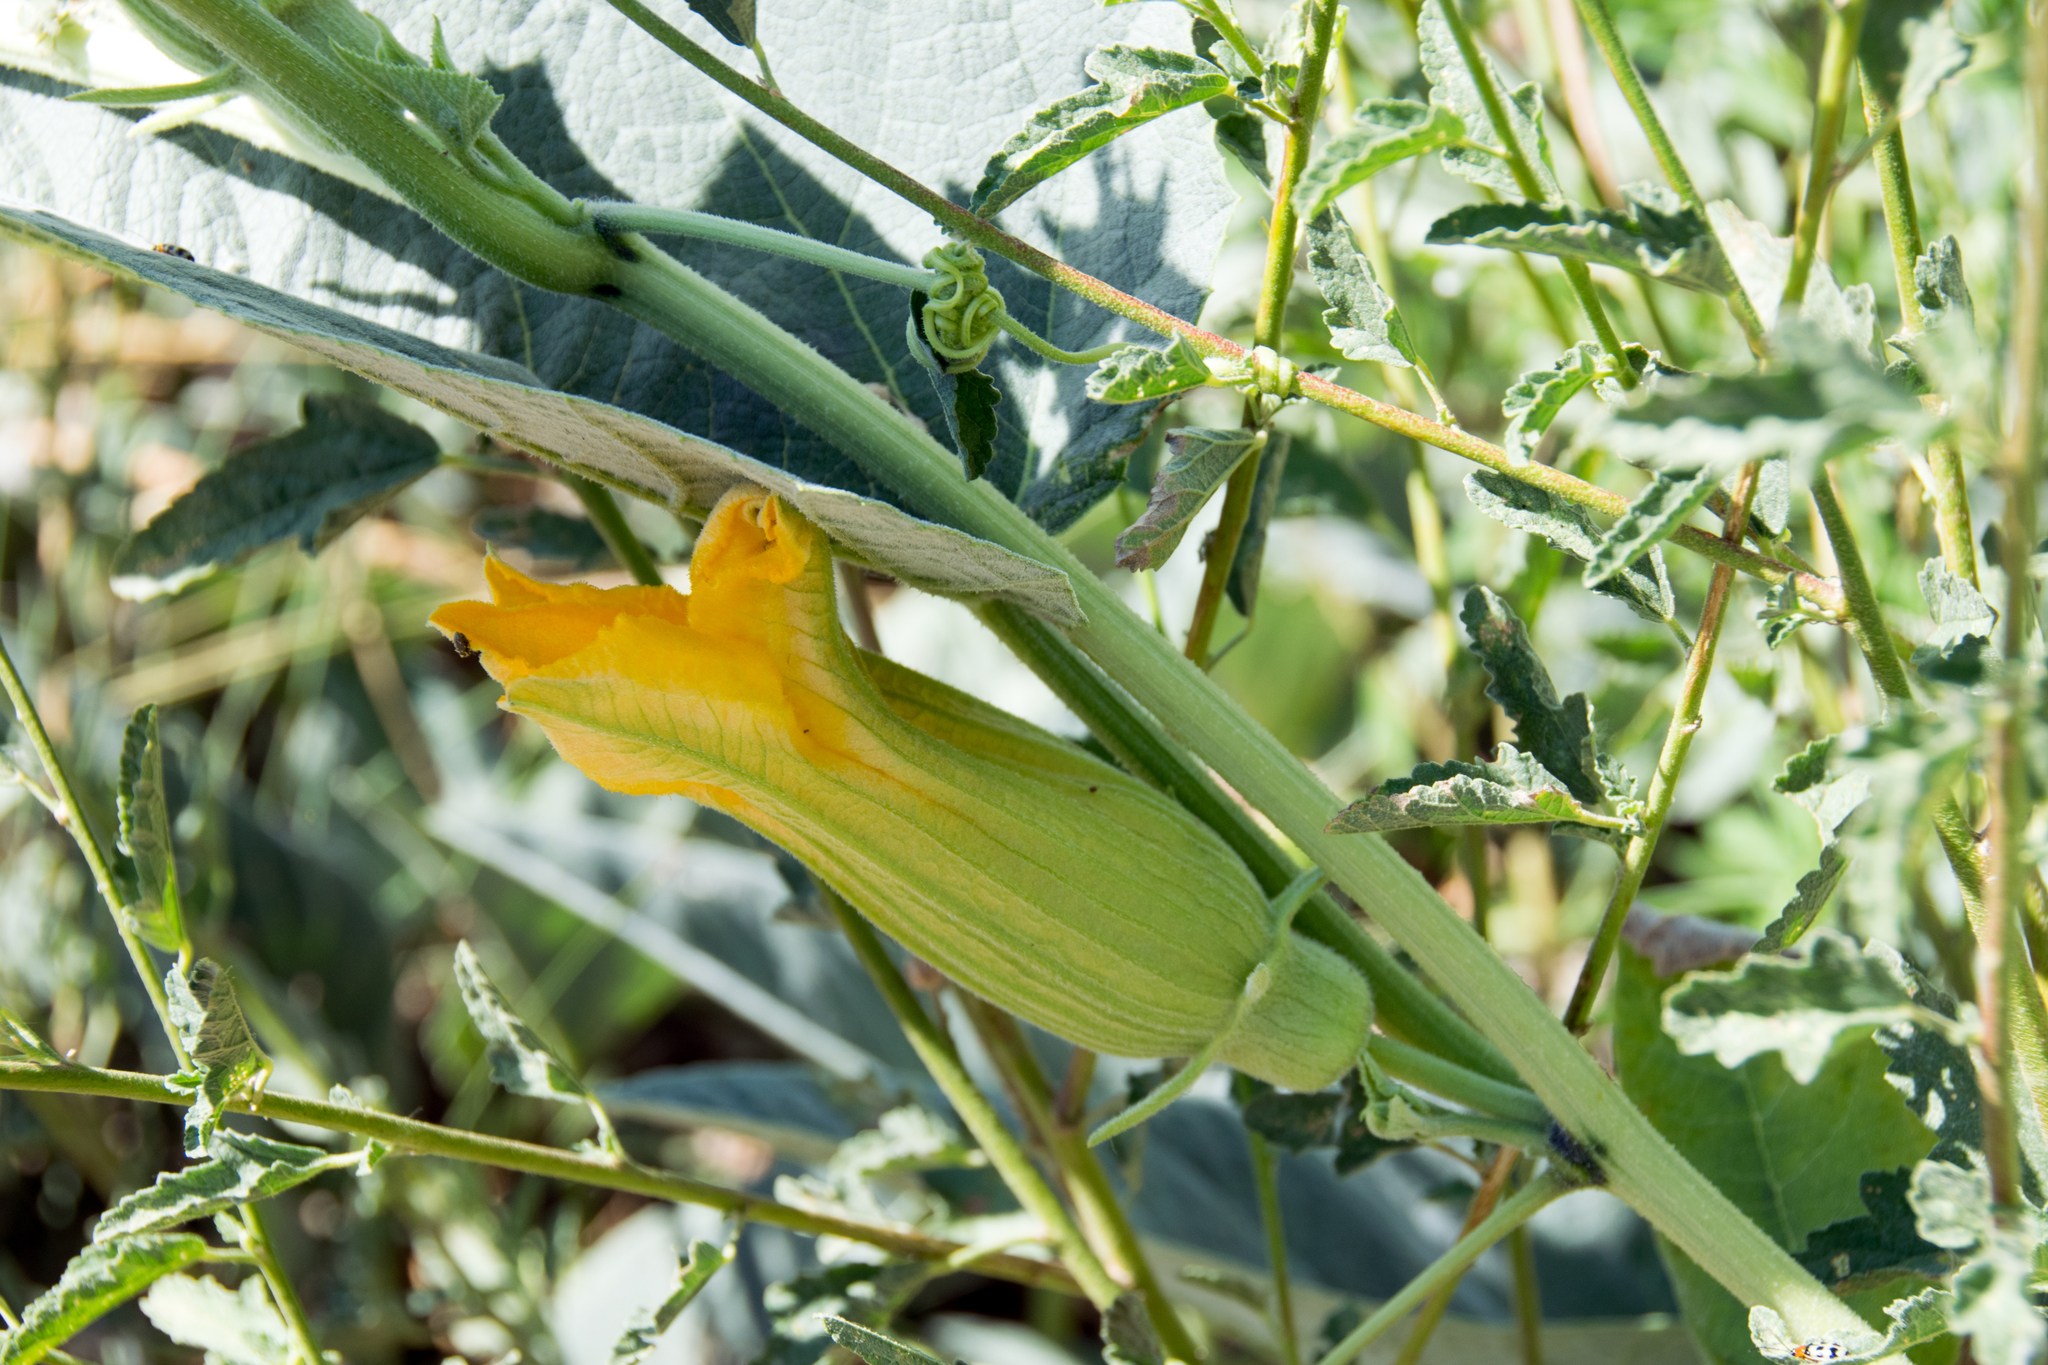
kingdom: Plantae
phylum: Tracheophyta
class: Magnoliopsida
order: Cucurbitales
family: Cucurbitaceae
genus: Cucurbita
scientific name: Cucurbita foetidissima
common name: Buffalo gourd
